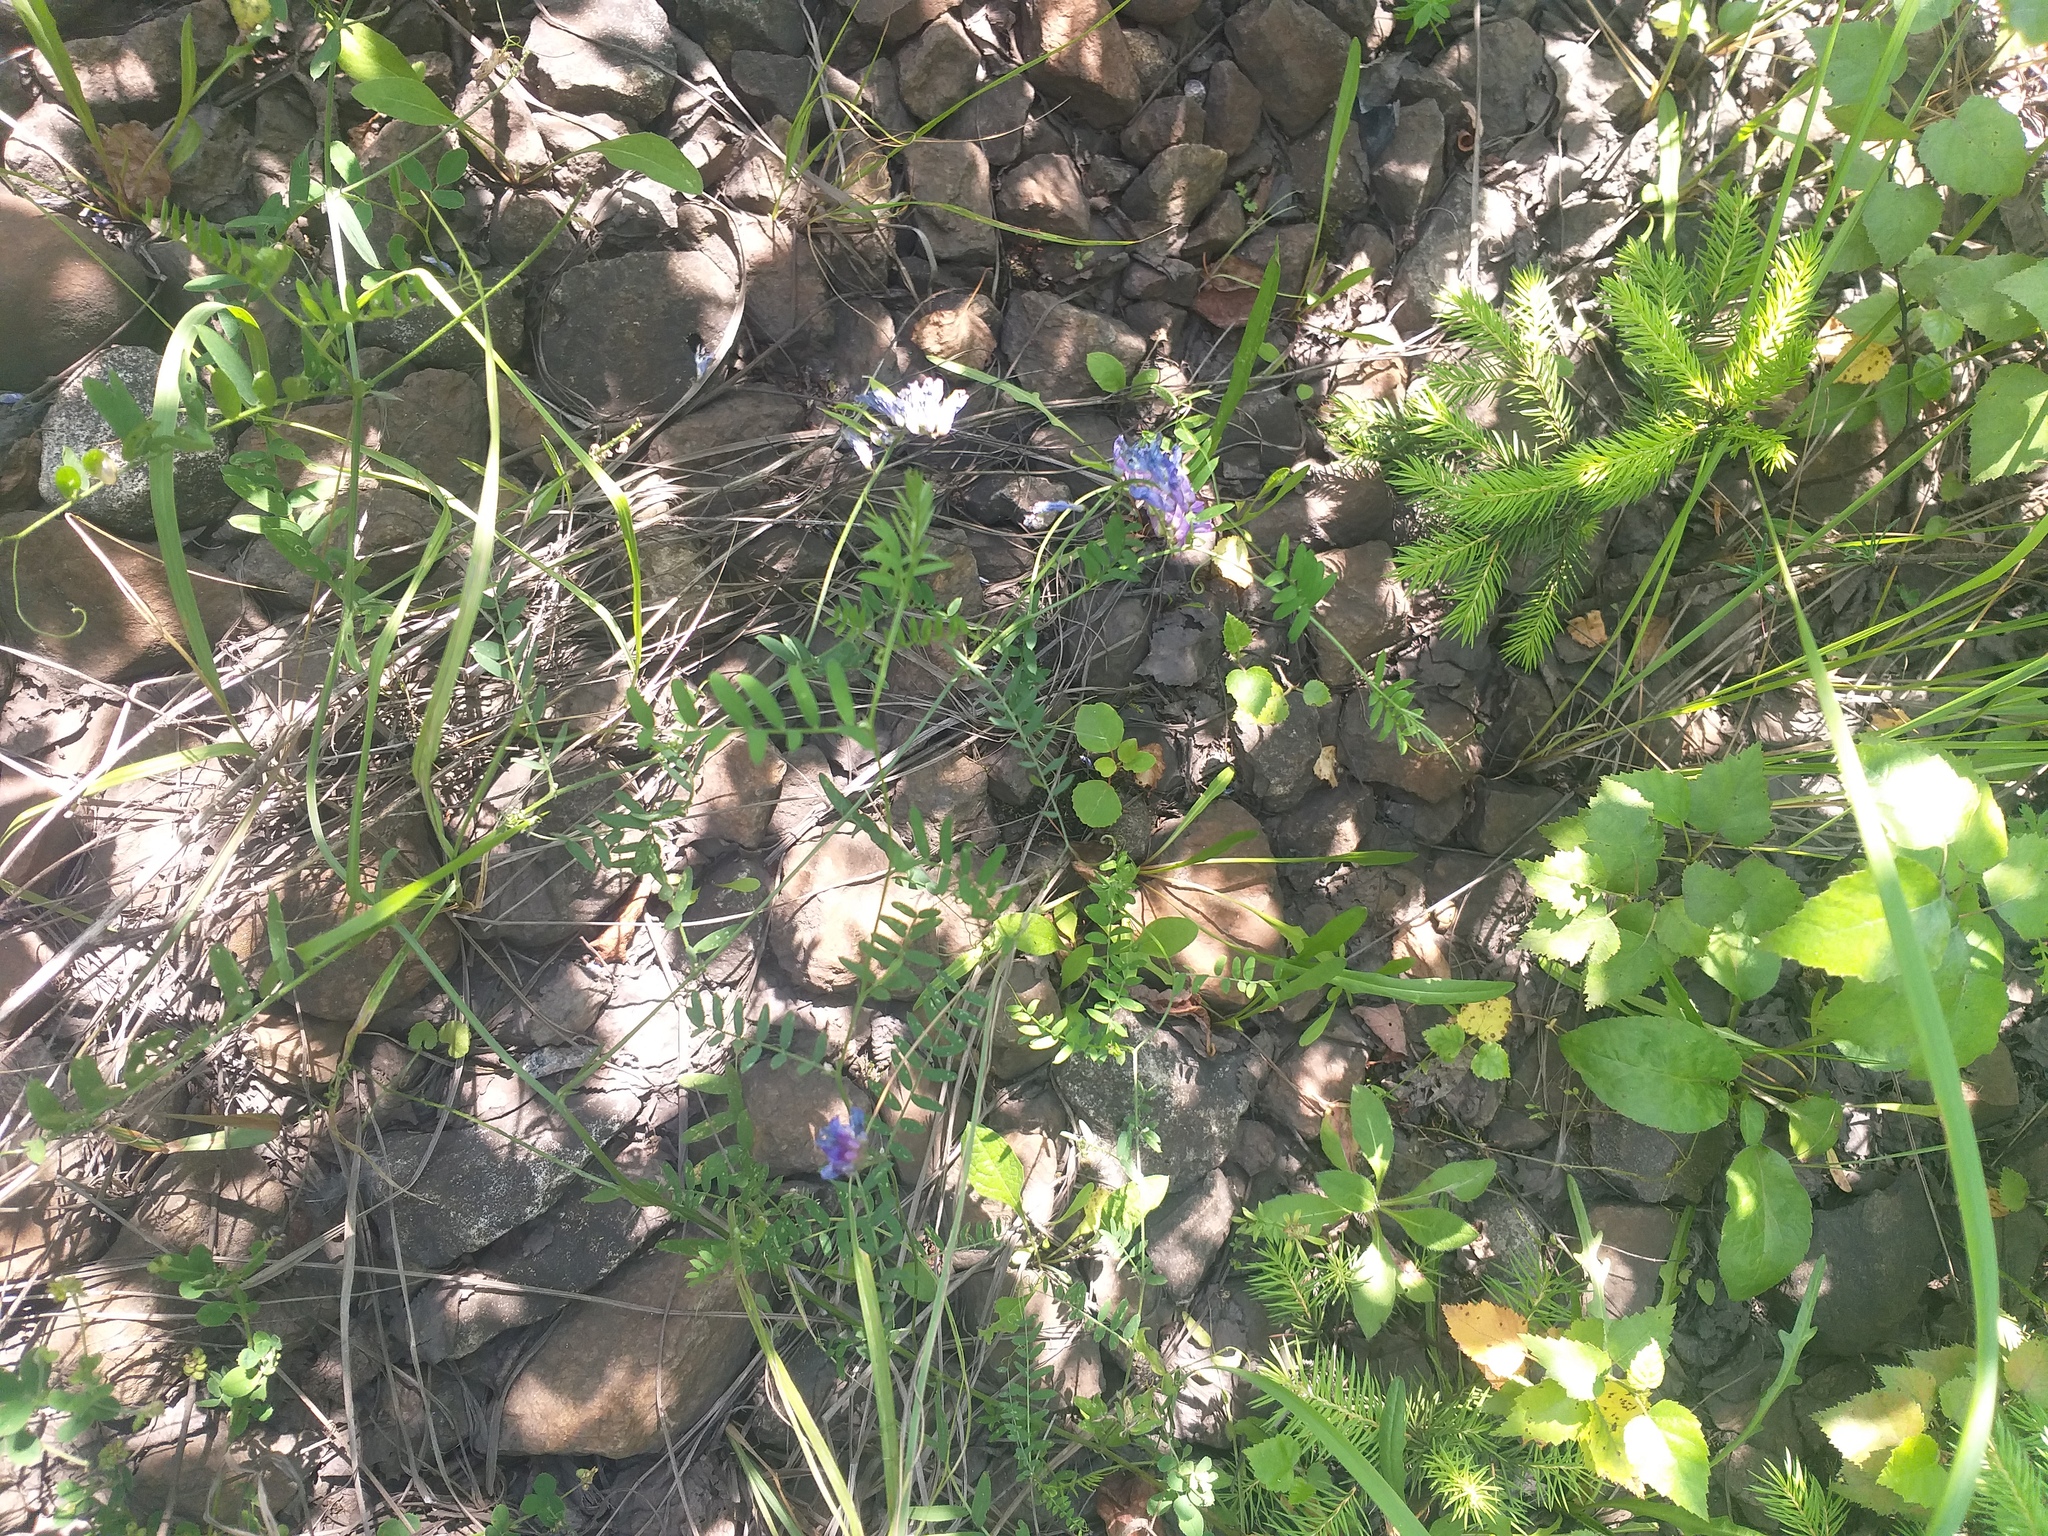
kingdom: Plantae
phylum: Tracheophyta
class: Magnoliopsida
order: Fabales
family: Fabaceae
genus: Vicia
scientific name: Vicia cracca
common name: Bird vetch
